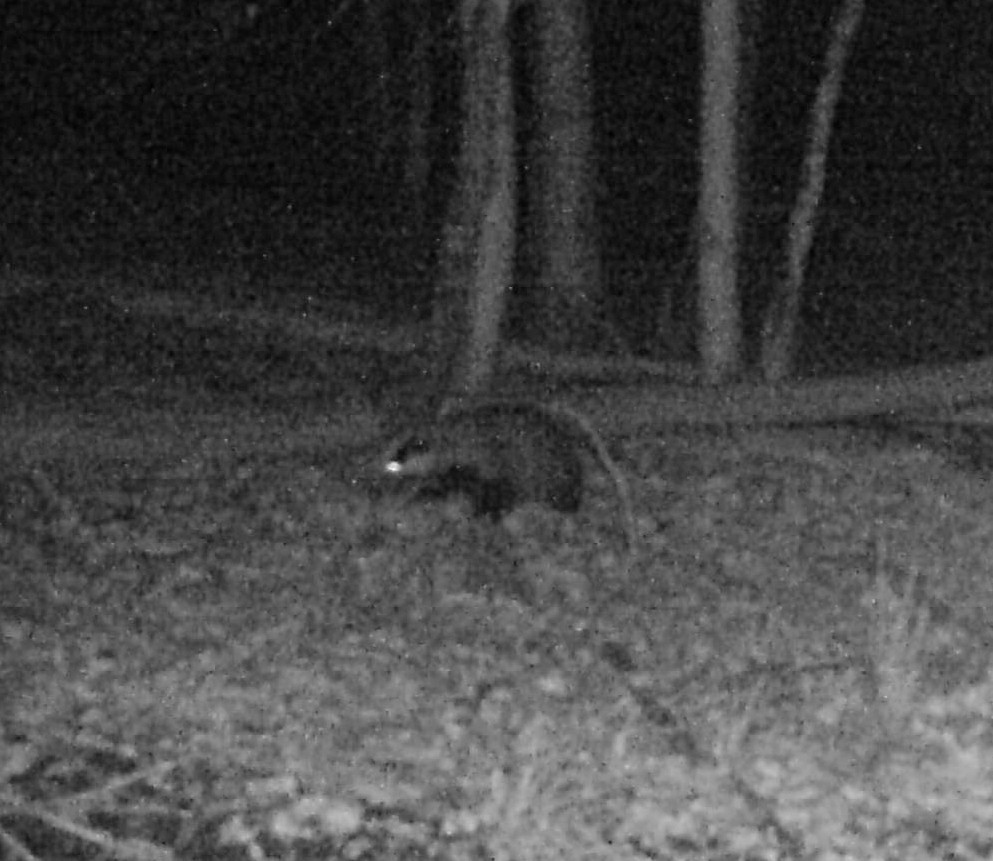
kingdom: Animalia
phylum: Chordata
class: Mammalia
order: Carnivora
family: Mustelidae
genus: Meles
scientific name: Meles meles
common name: Eurasian badger
